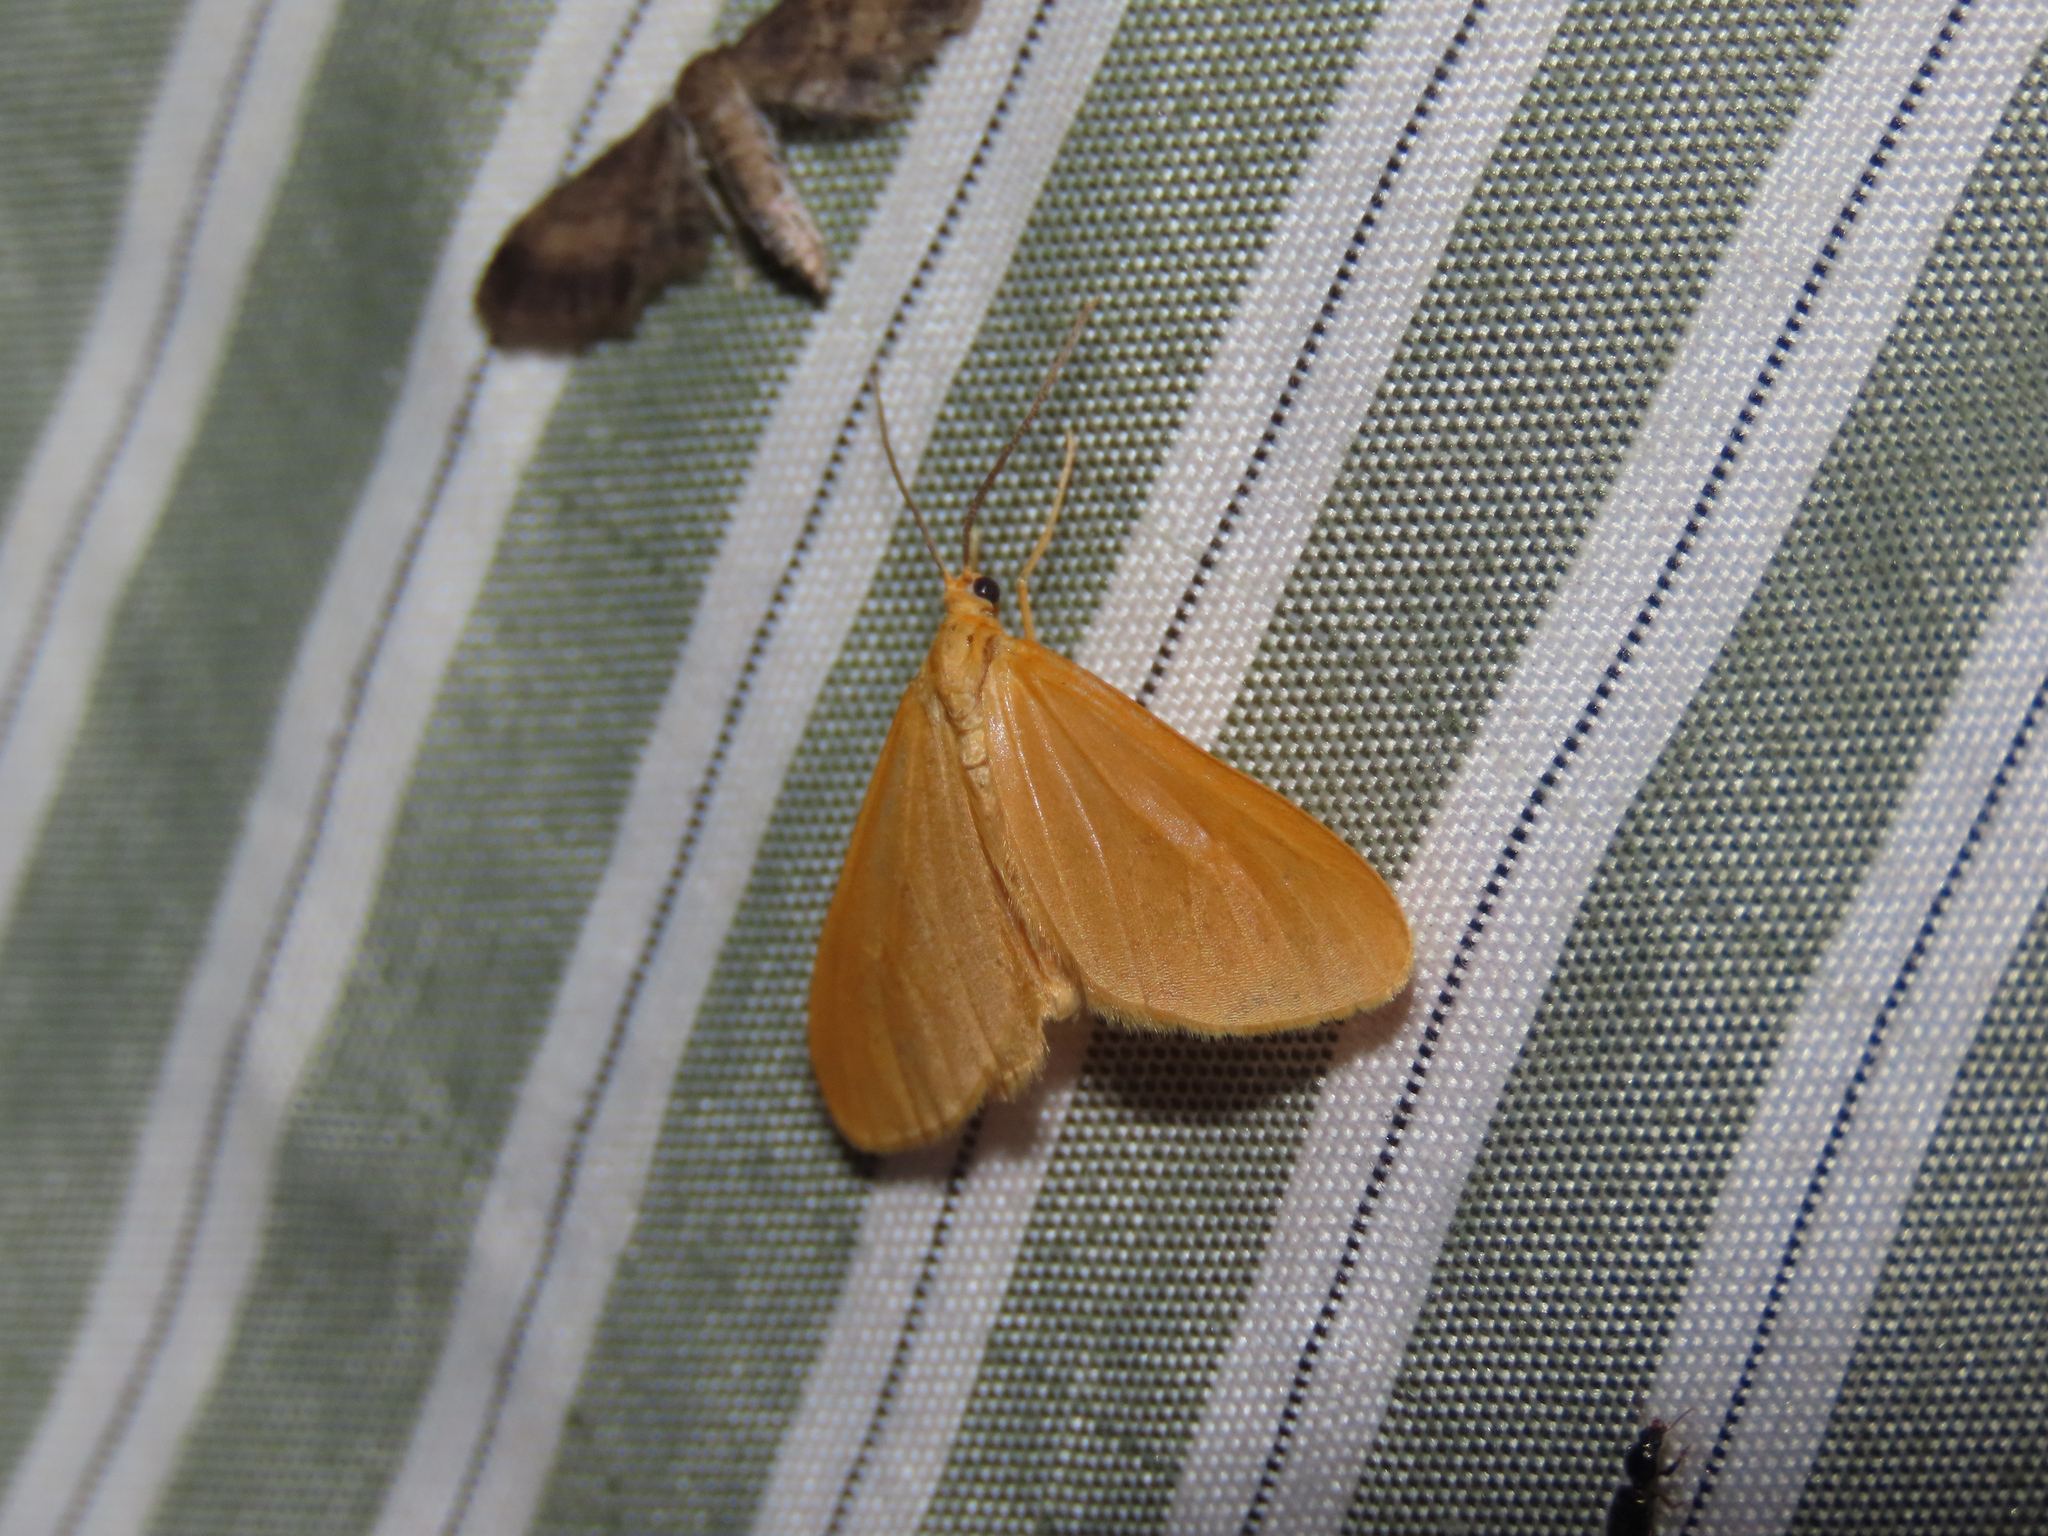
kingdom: Animalia
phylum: Arthropoda
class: Insecta
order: Lepidoptera
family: Geometridae
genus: Eubaphe
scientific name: Eubaphe unicolor
